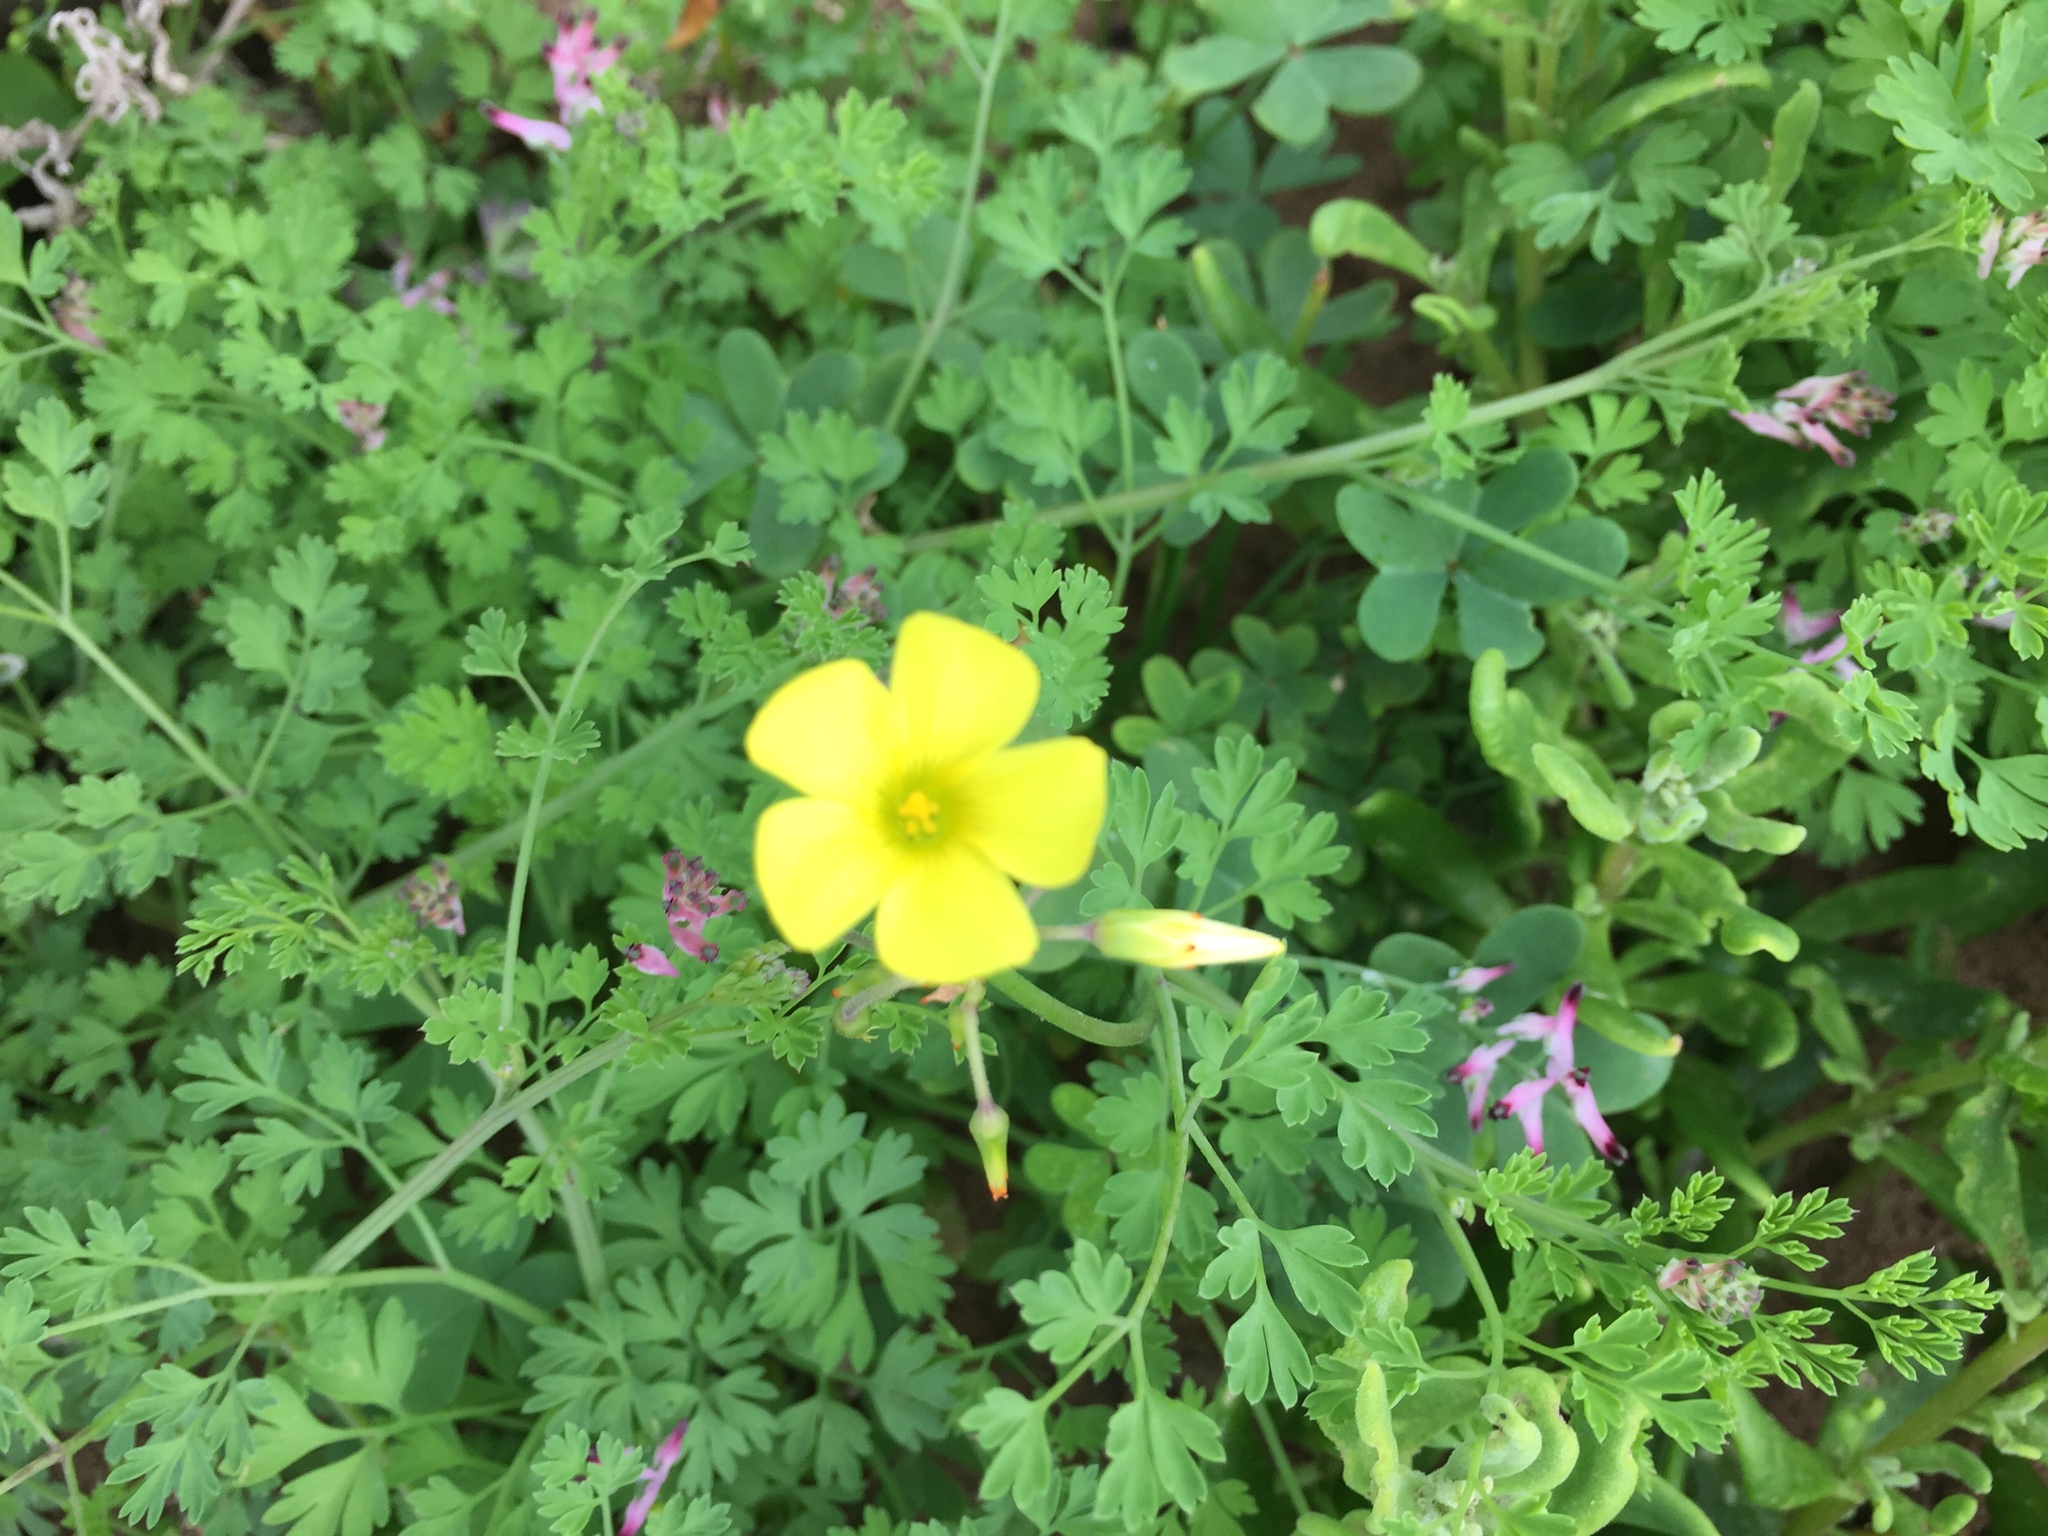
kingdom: Plantae
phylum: Tracheophyta
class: Magnoliopsida
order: Oxalidales
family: Oxalidaceae
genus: Oxalis
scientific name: Oxalis pes-caprae
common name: Bermuda-buttercup
